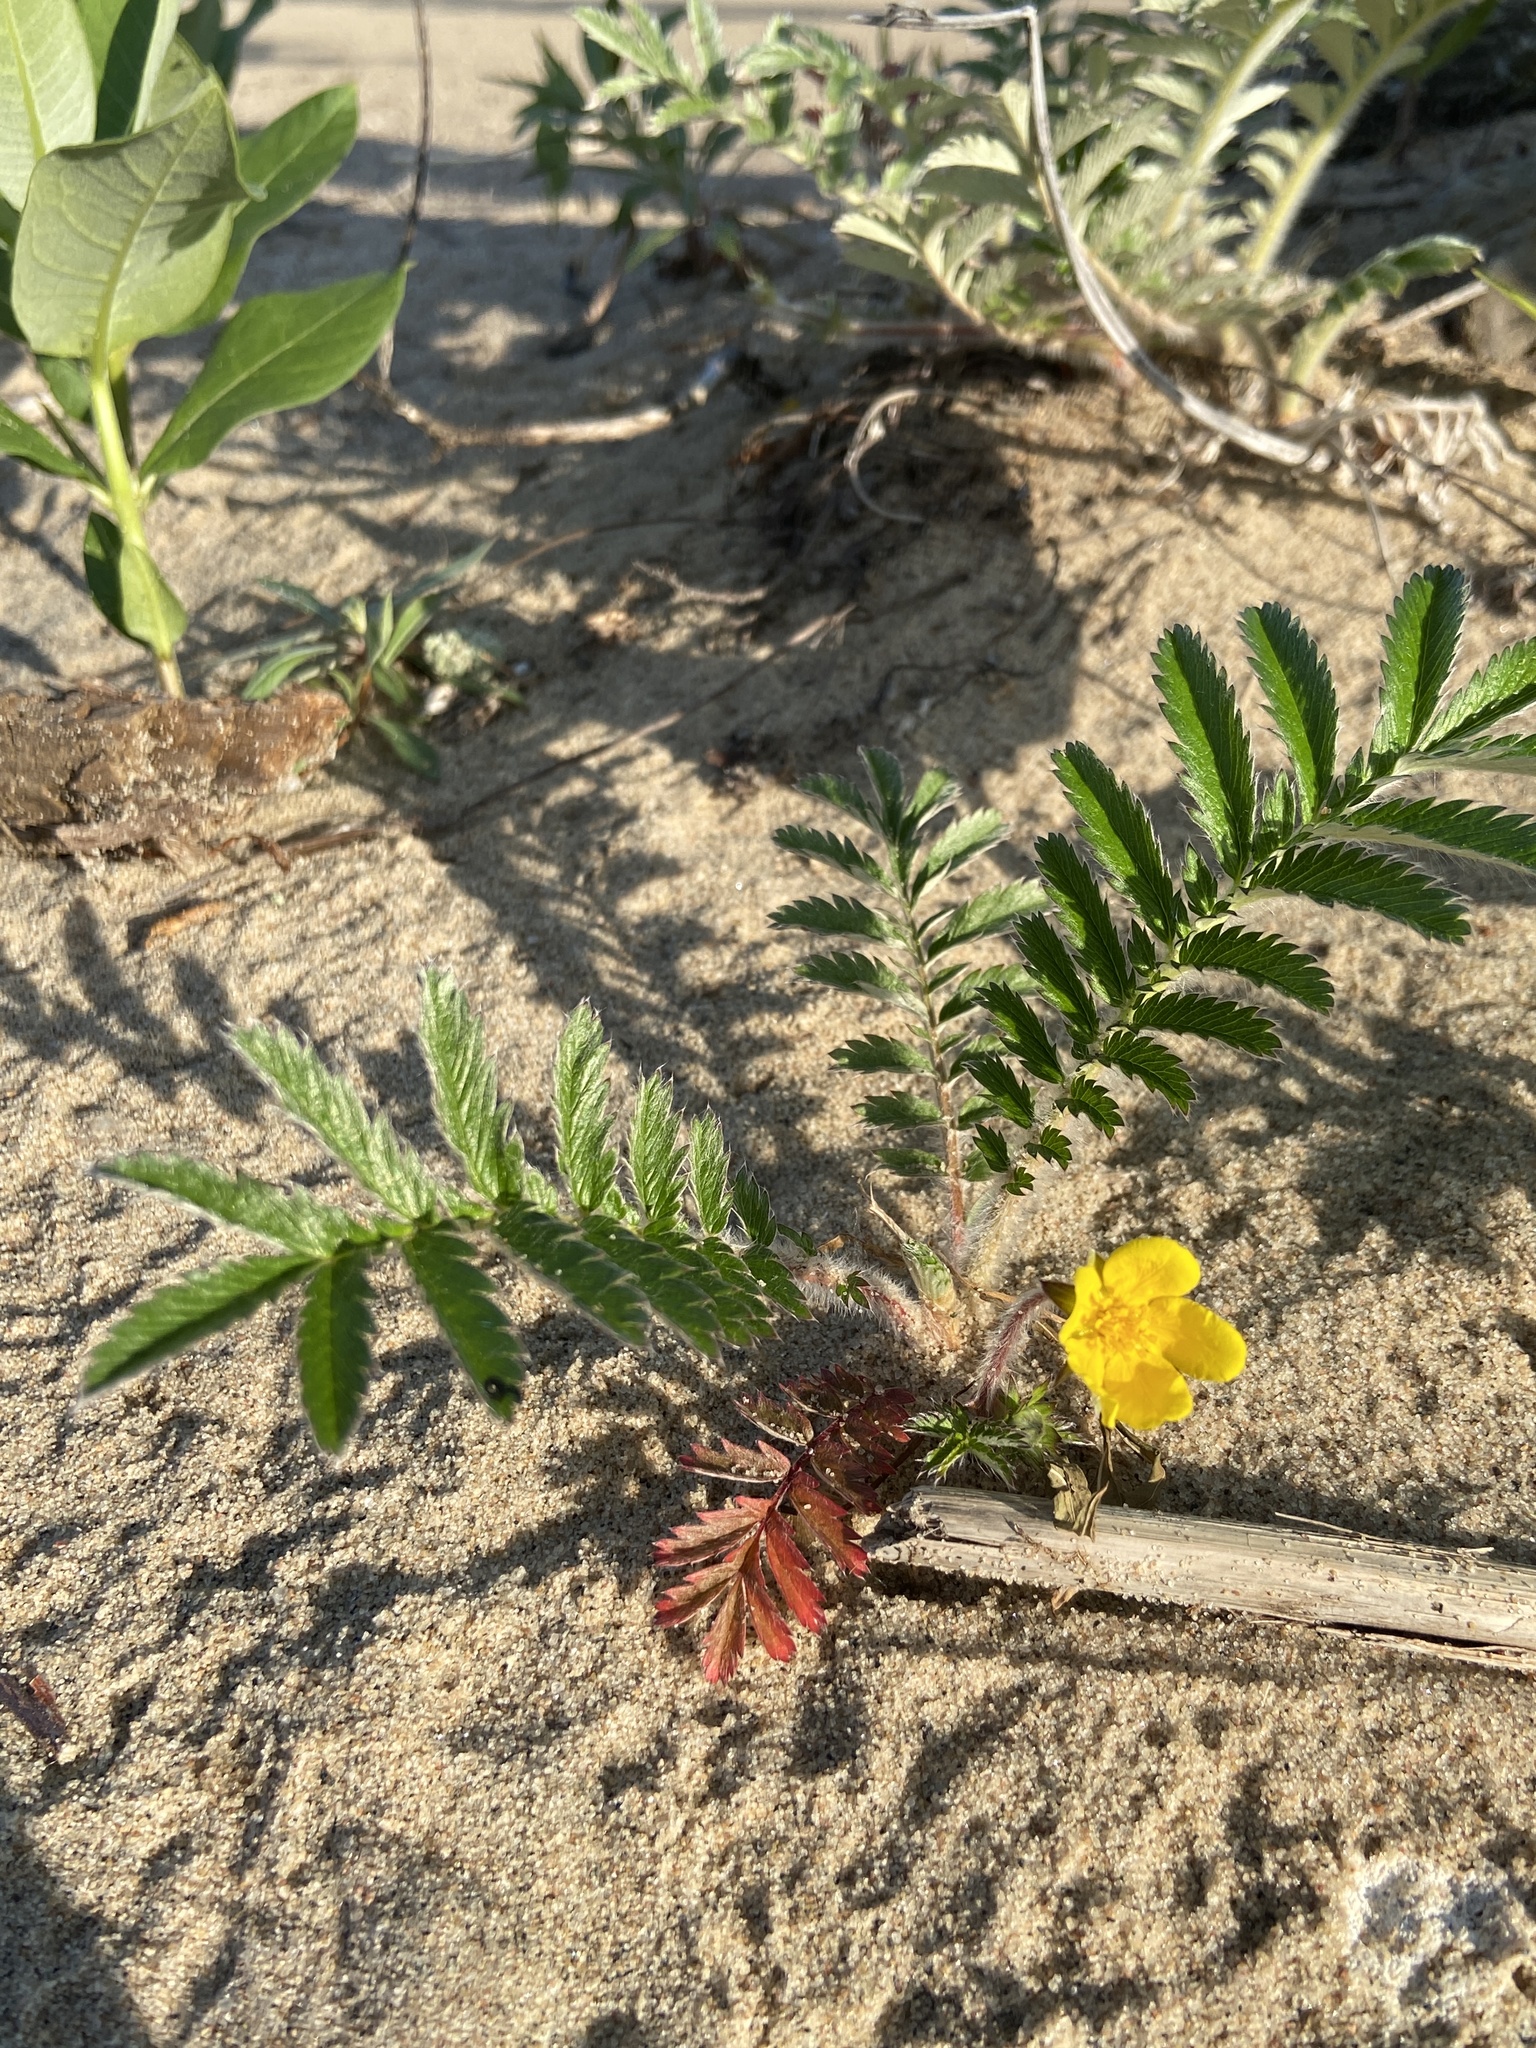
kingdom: Plantae
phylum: Tracheophyta
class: Magnoliopsida
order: Rosales
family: Rosaceae
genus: Argentina
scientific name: Argentina anserina
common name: Common silverweed
